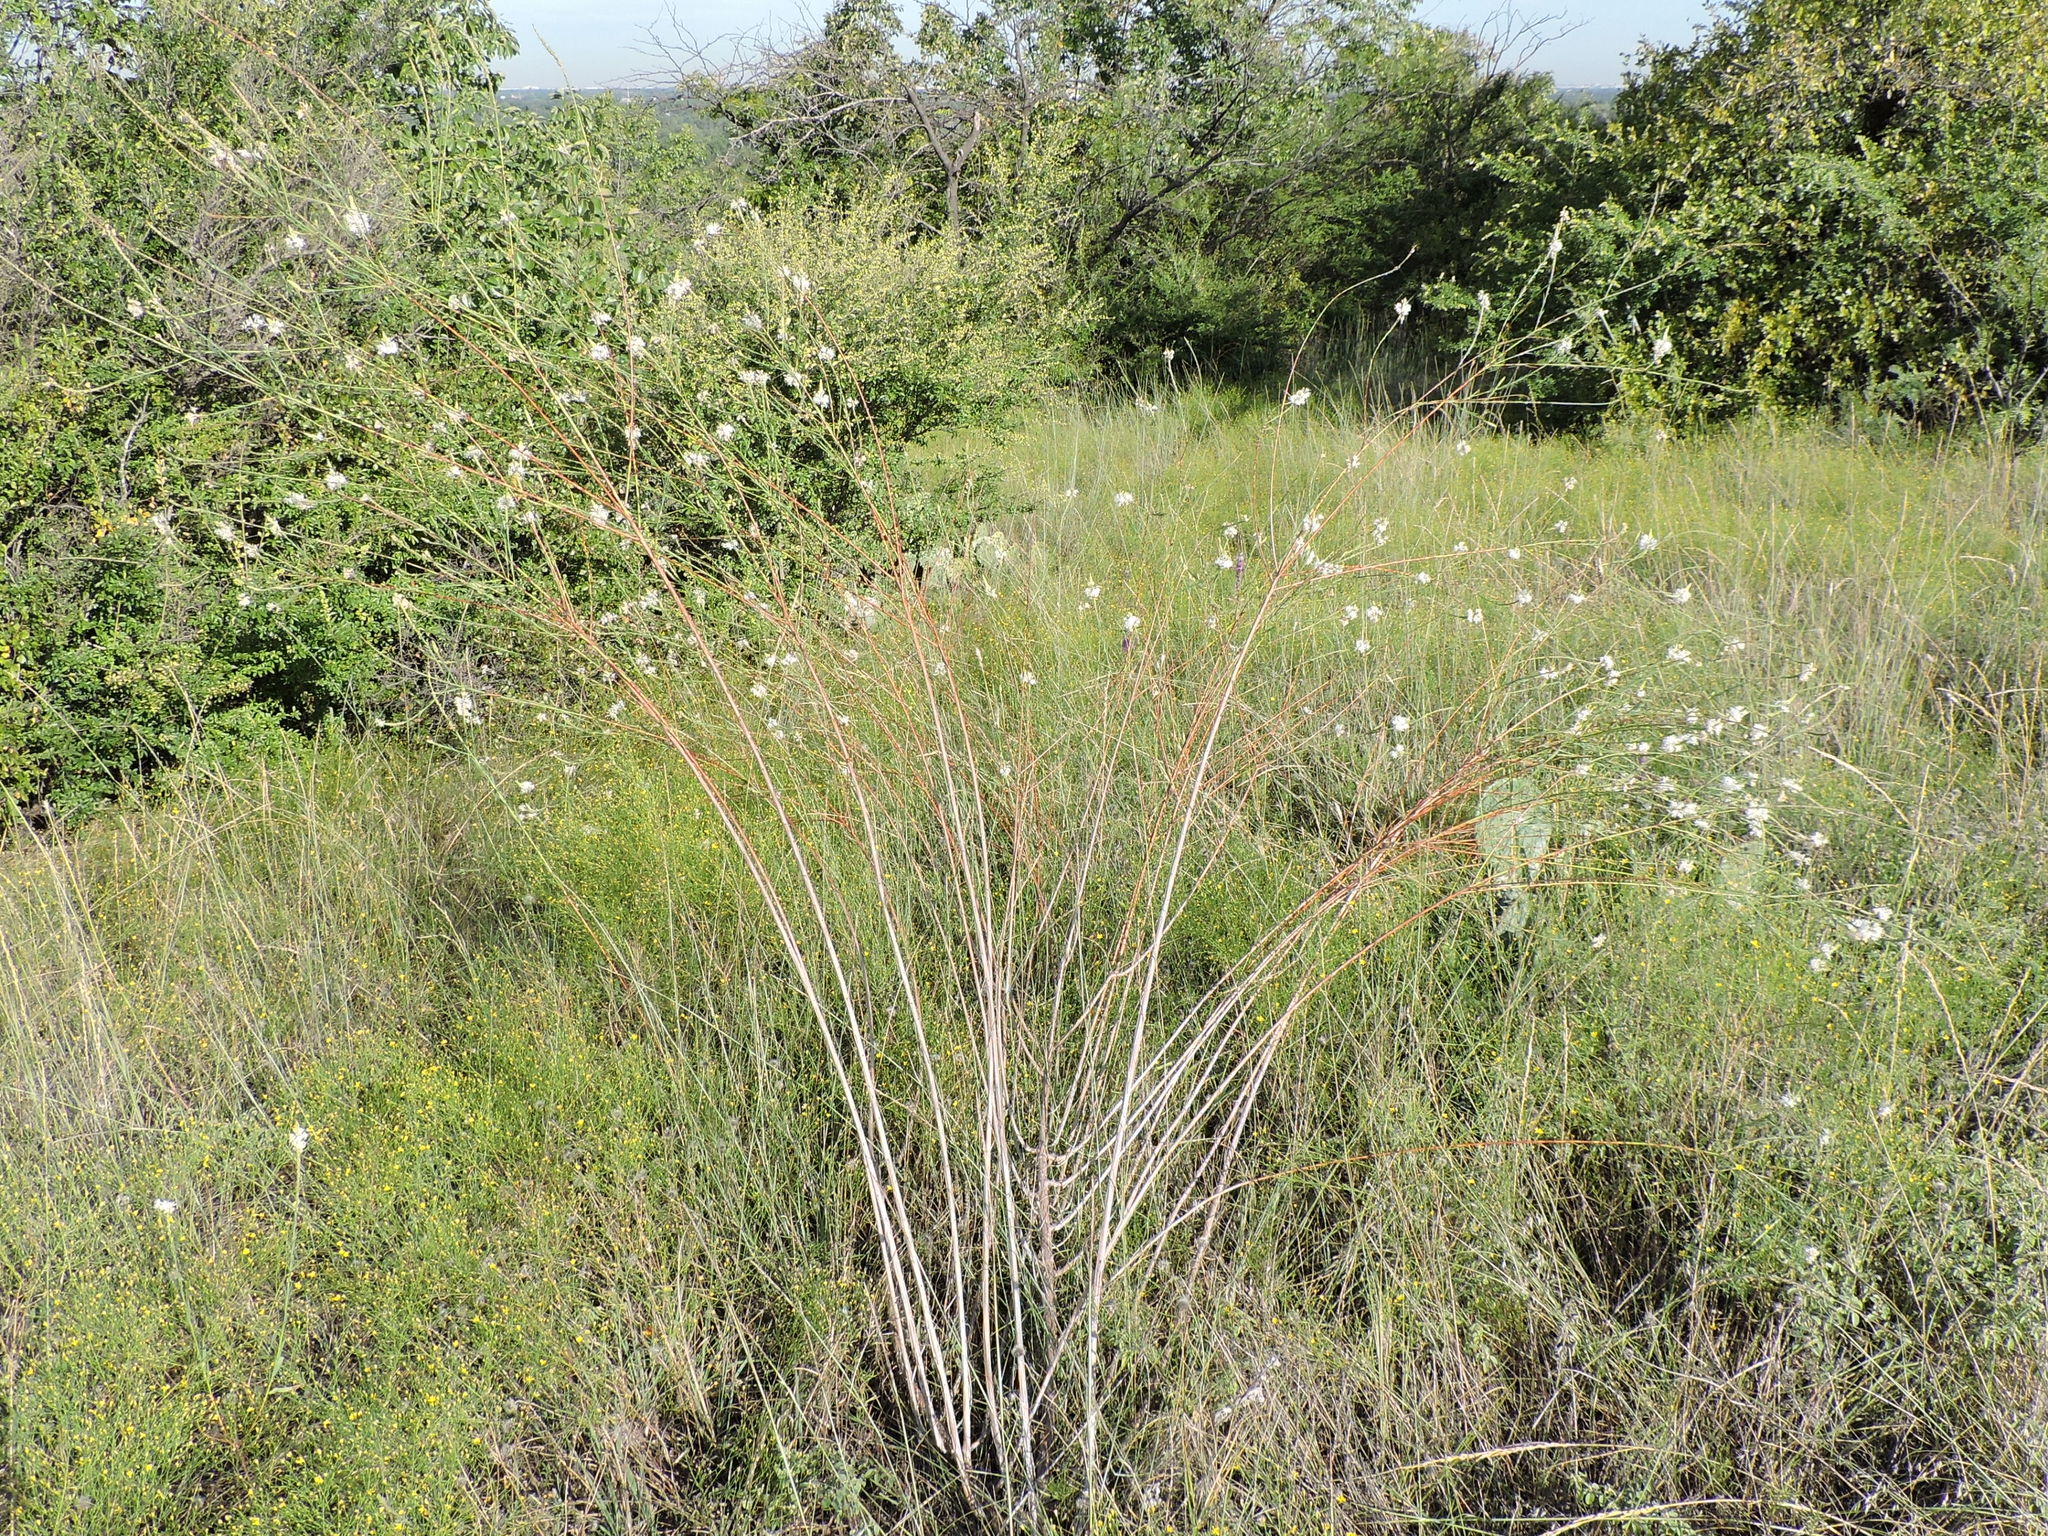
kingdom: Plantae
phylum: Tracheophyta
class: Magnoliopsida
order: Myrtales
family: Onagraceae
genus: Oenothera
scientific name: Oenothera glaucifolia
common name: False gaura
